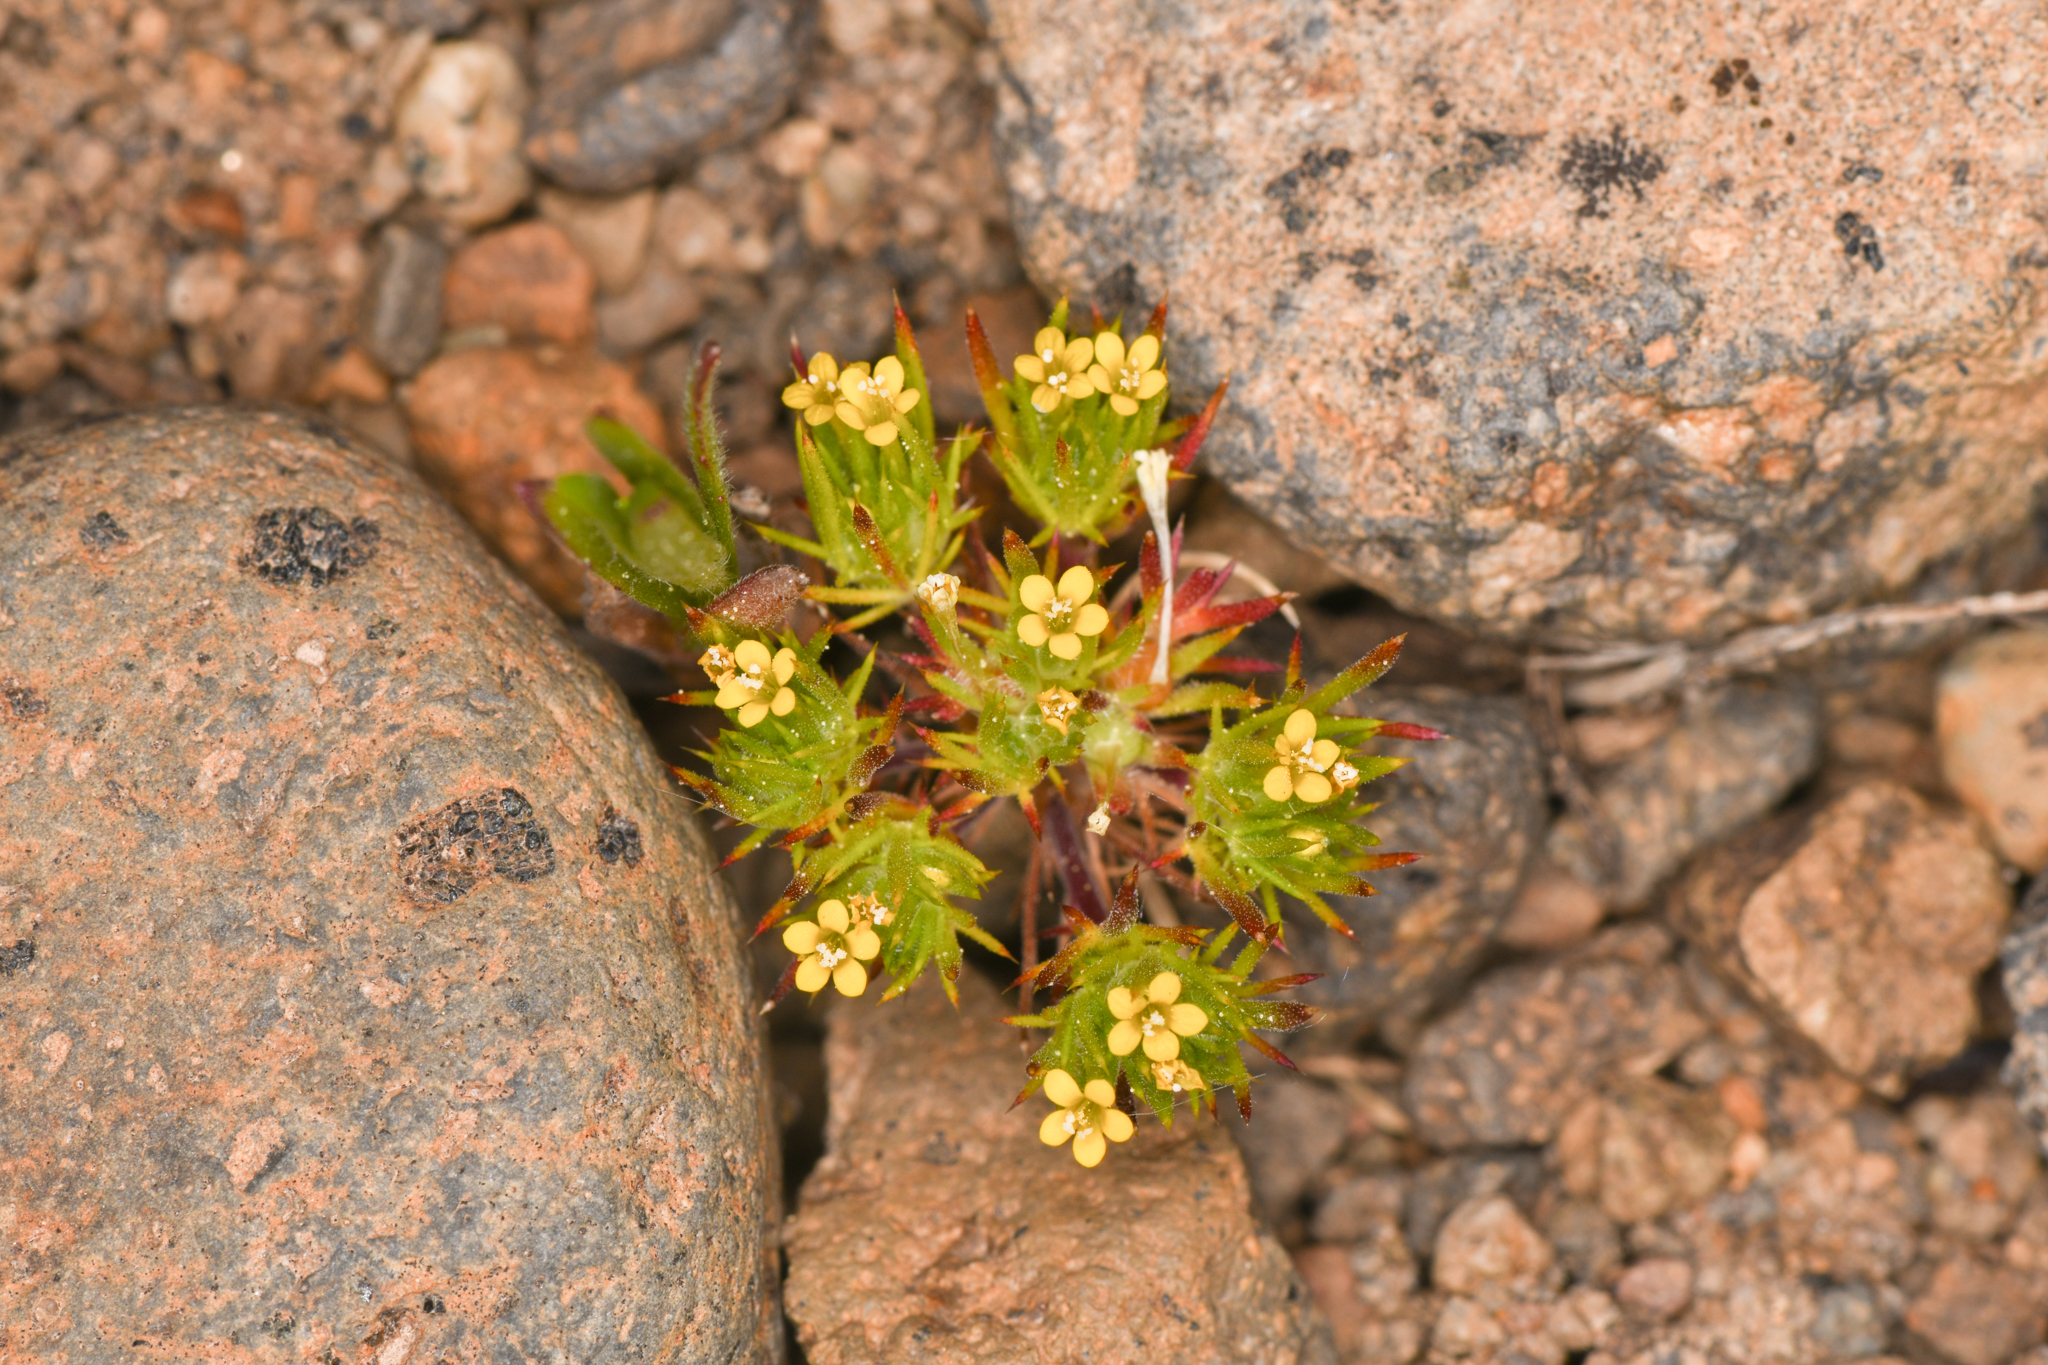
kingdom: Plantae
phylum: Tracheophyta
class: Magnoliopsida
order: Ericales
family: Polemoniaceae
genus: Navarretia
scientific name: Navarretia breweri
